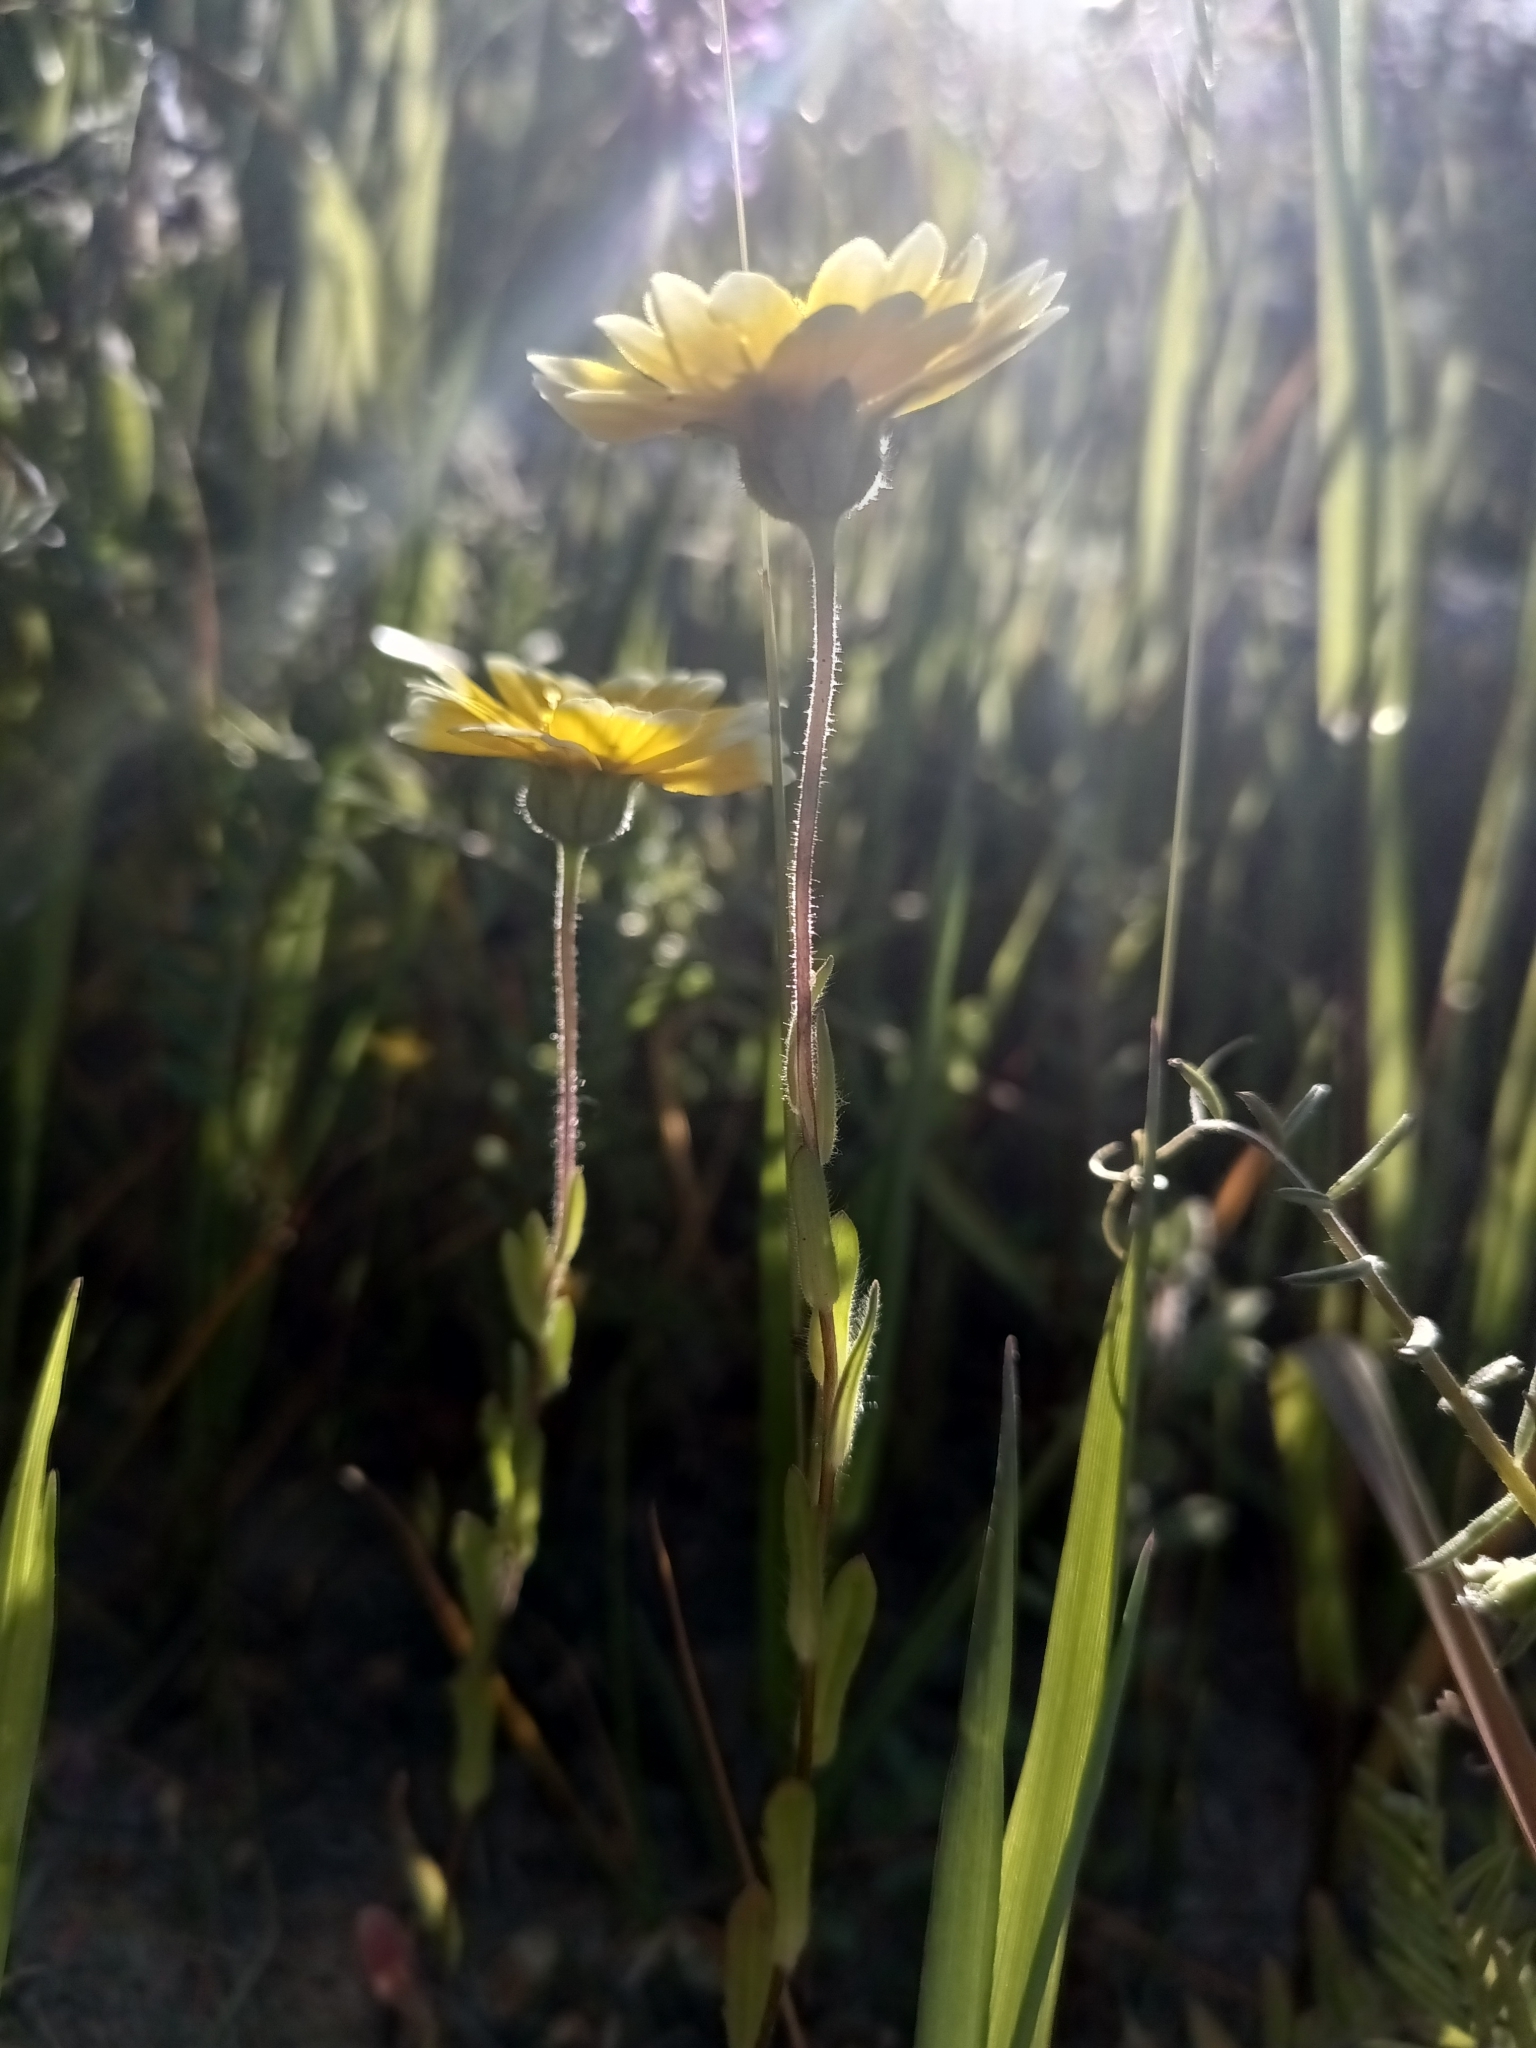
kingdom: Plantae
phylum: Tracheophyta
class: Magnoliopsida
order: Asterales
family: Asteraceae
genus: Layia
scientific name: Layia platyglossa
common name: Tidy-tips
